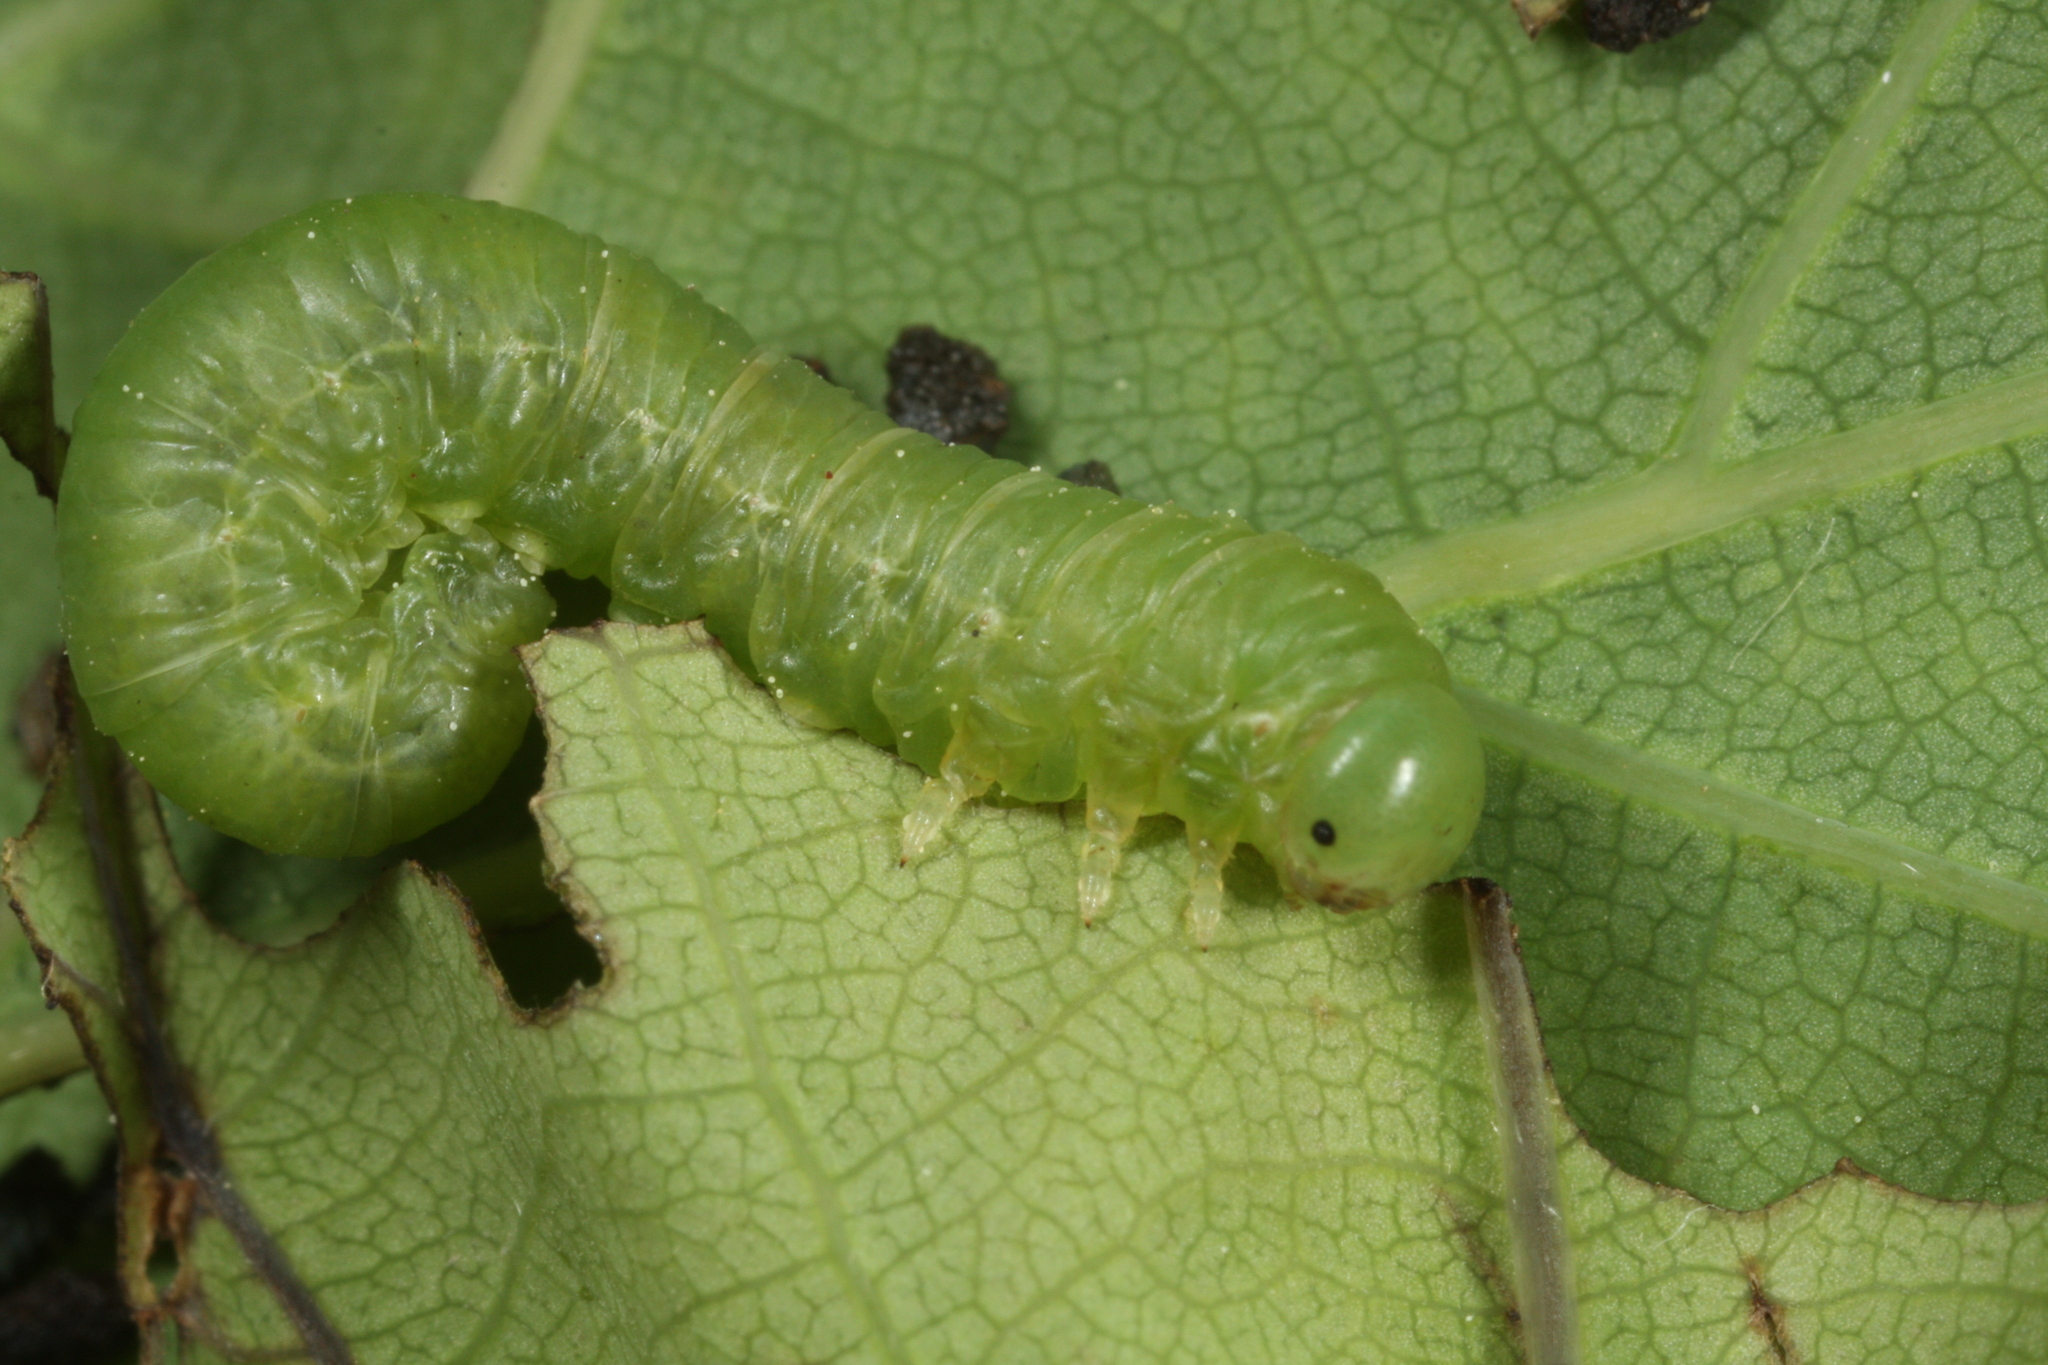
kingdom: Animalia
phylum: Arthropoda
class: Insecta
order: Hymenoptera
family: Tenthredinidae
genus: Mesoneura
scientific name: Mesoneura opaca
